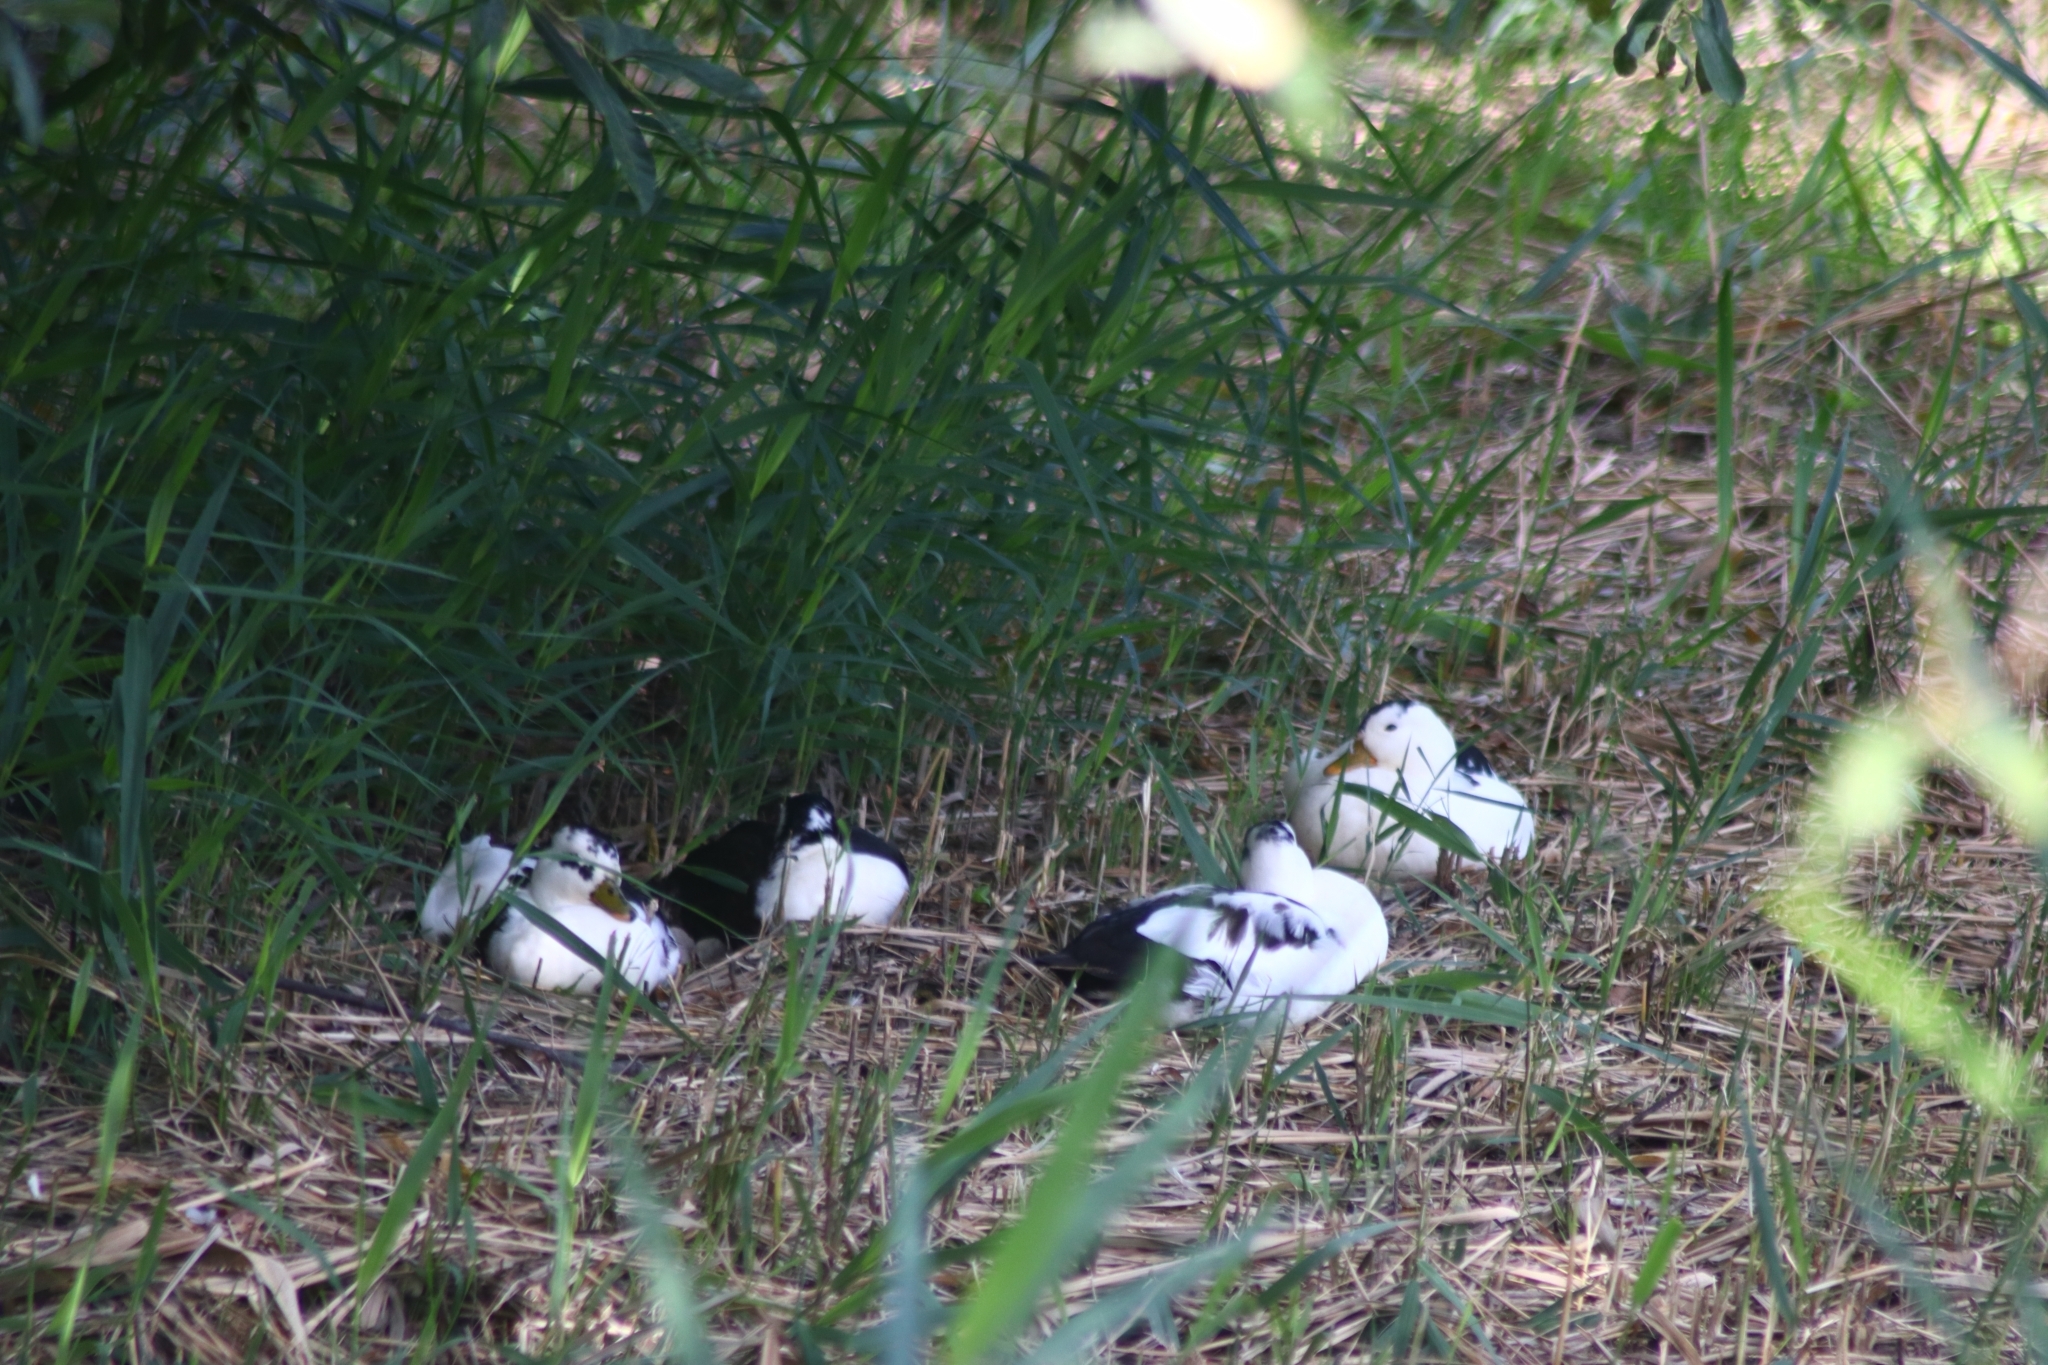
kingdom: Animalia
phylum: Chordata
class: Aves
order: Anseriformes
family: Anatidae
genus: Anas
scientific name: Anas platyrhynchos
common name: Mallard
